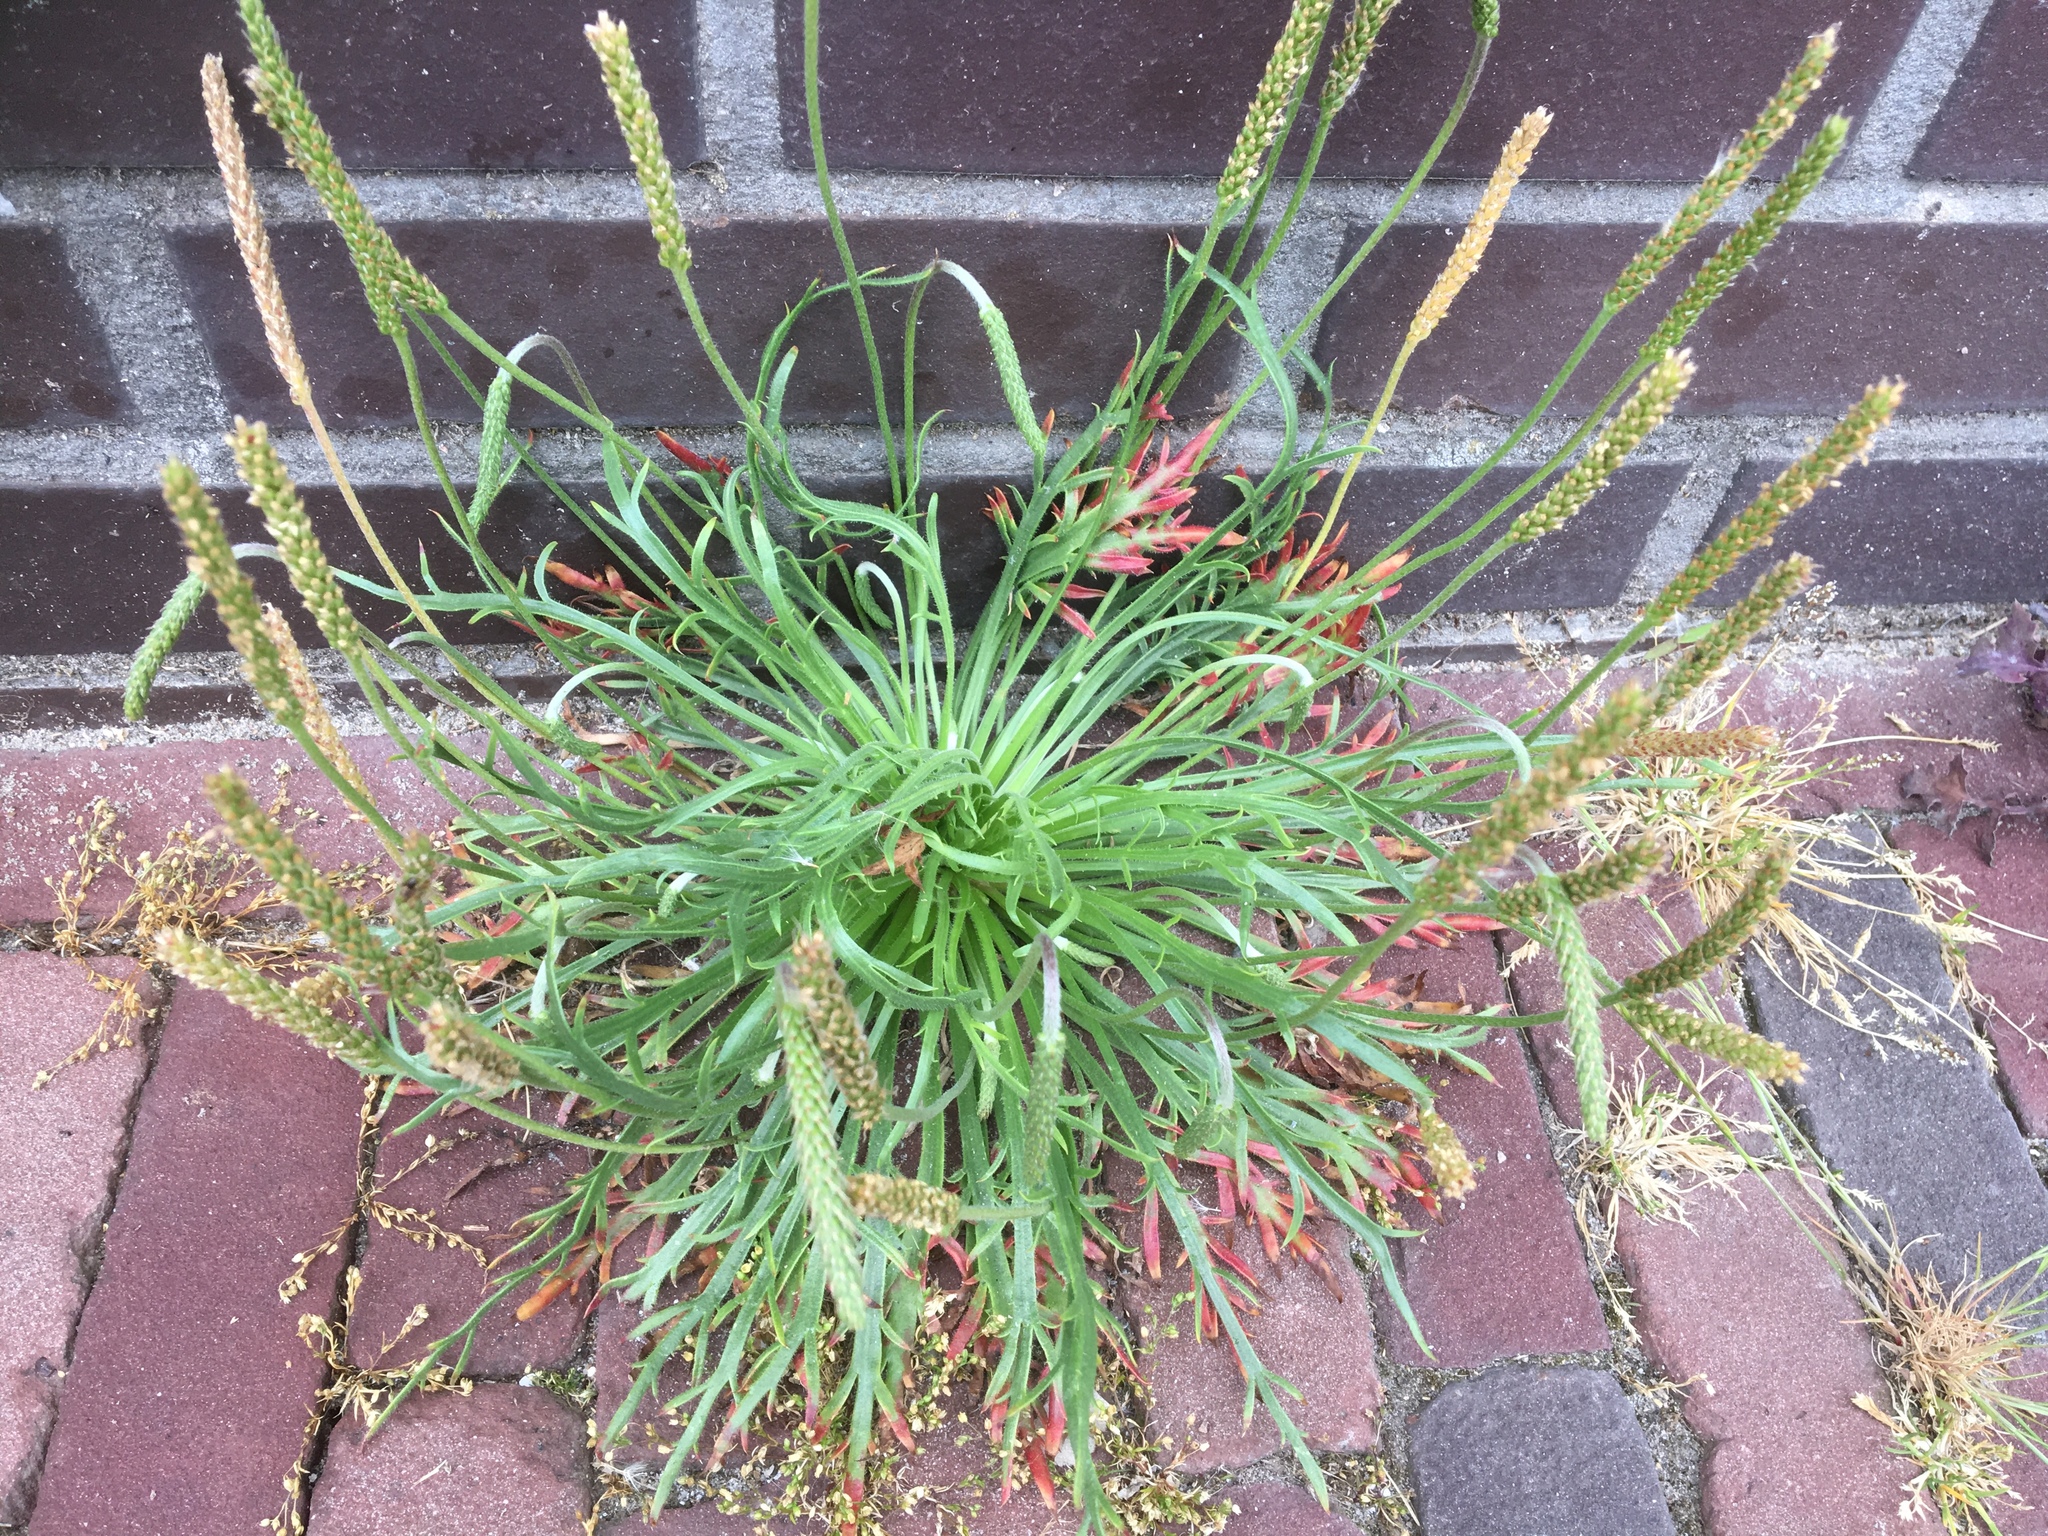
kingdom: Plantae
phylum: Tracheophyta
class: Magnoliopsida
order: Lamiales
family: Plantaginaceae
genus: Plantago
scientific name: Plantago coronopus
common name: Buck's-horn plantain
